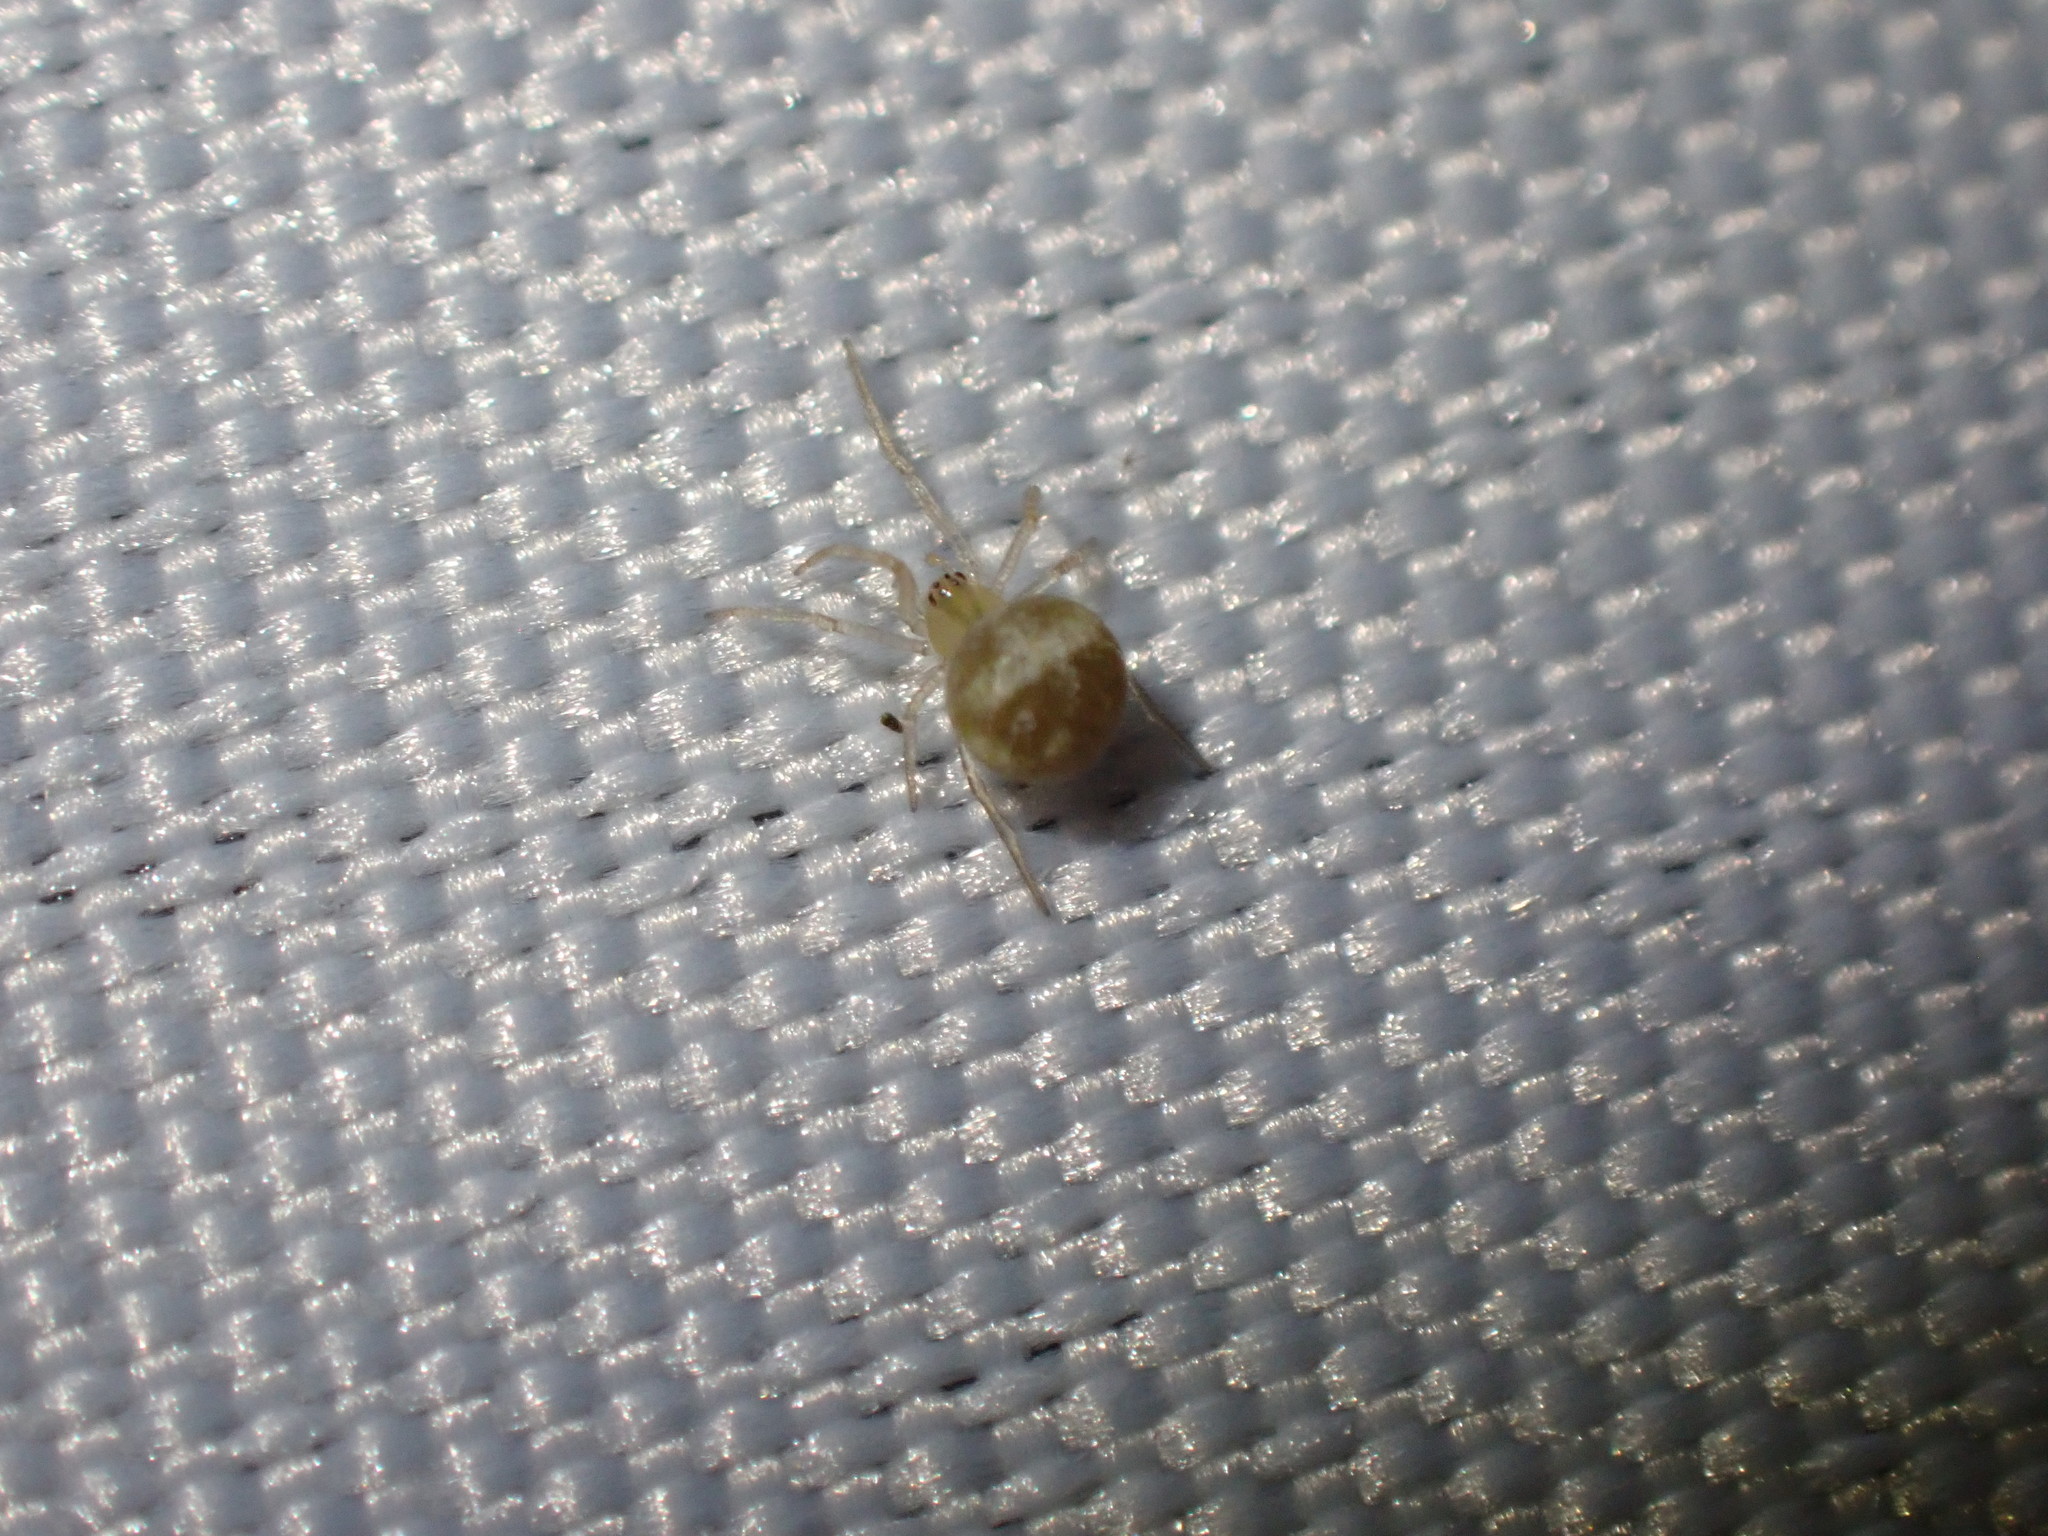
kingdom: Animalia
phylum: Arthropoda
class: Arachnida
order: Araneae
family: Theridiidae
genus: Paidiscura
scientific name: Paidiscura pallens
